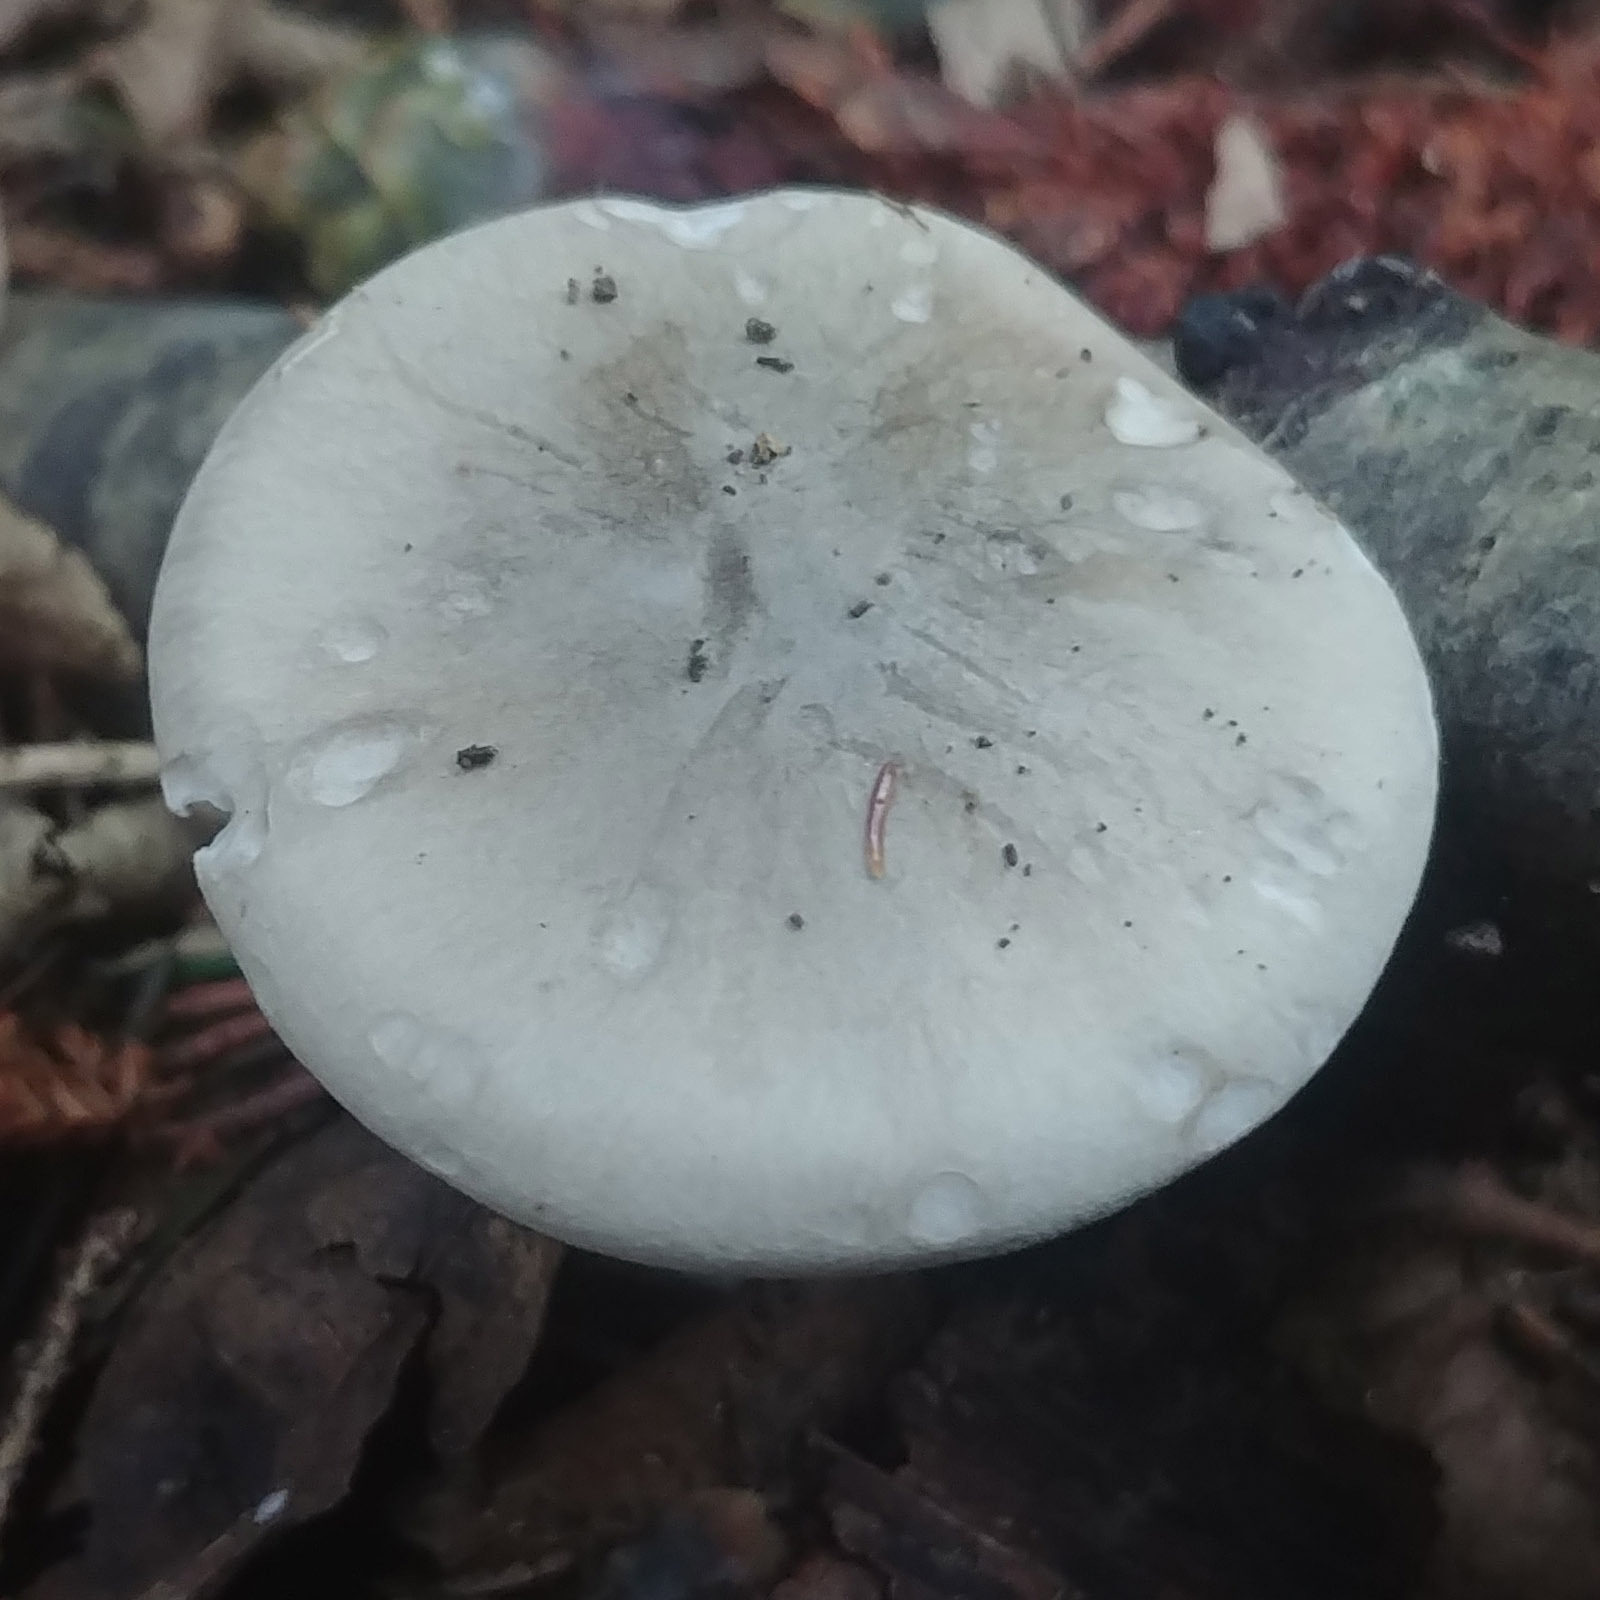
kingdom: Fungi
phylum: Basidiomycota
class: Agaricomycetes
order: Agaricales
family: Tricholomataceae
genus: Clitocybe
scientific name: Clitocybe nebularis
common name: Clouded agaric
